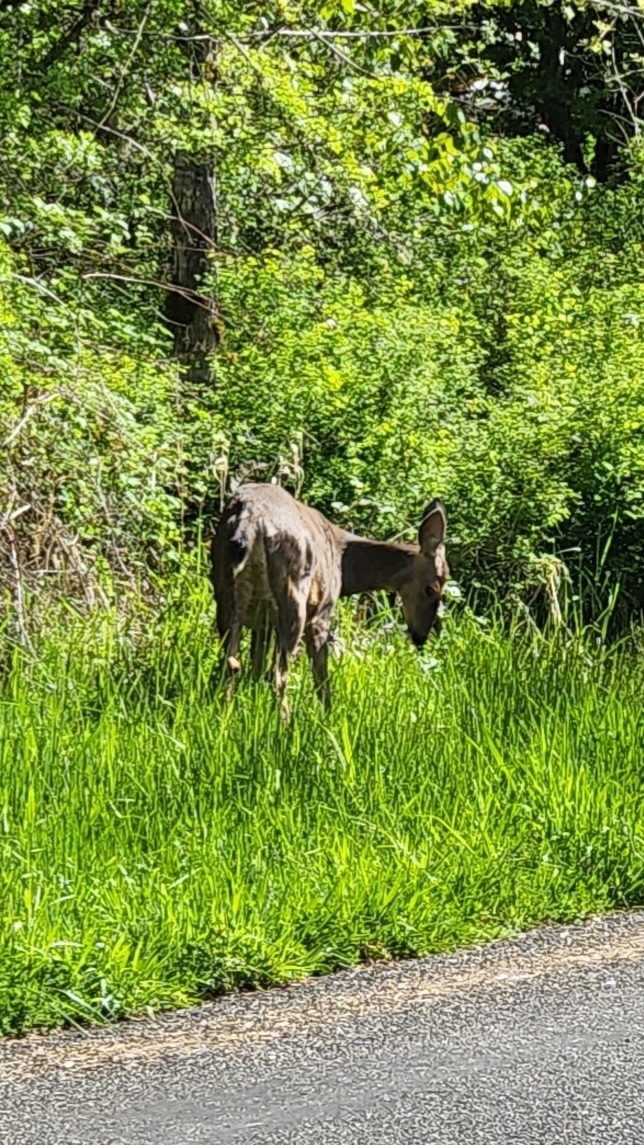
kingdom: Animalia
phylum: Chordata
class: Mammalia
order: Artiodactyla
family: Cervidae
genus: Odocoileus
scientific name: Odocoileus hemionus
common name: Mule deer
